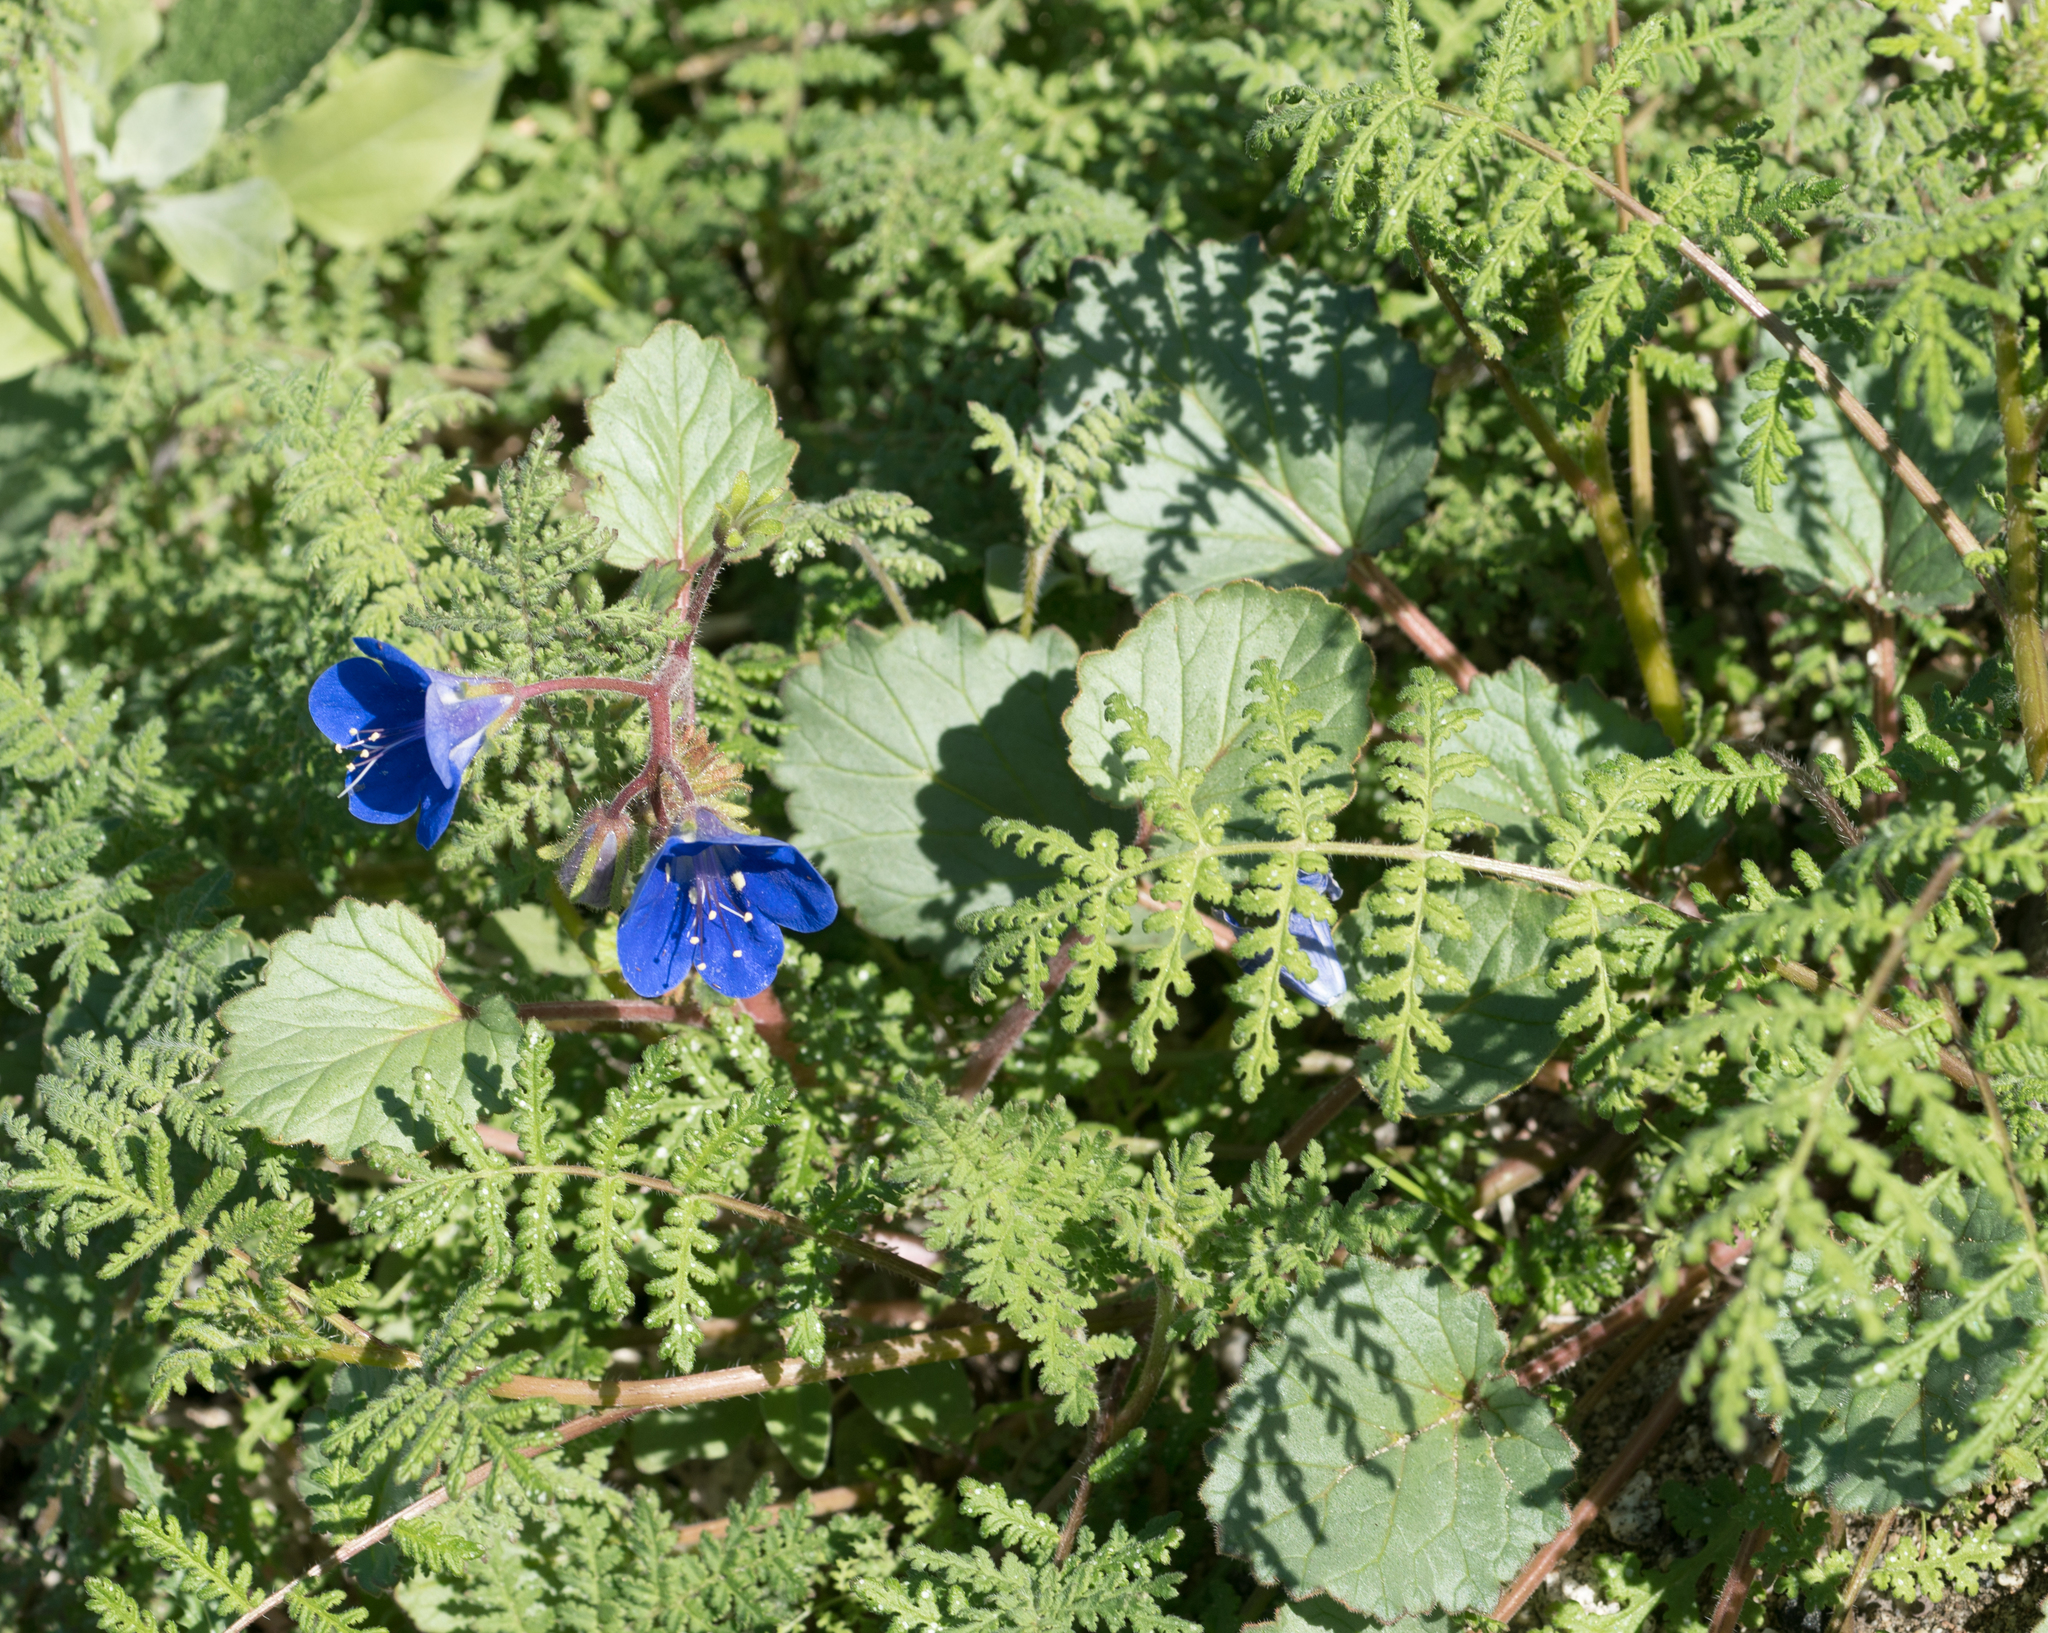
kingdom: Plantae
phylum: Tracheophyta
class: Magnoliopsida
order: Boraginales
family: Hydrophyllaceae
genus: Phacelia
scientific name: Phacelia campanularia
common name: California bluebell
